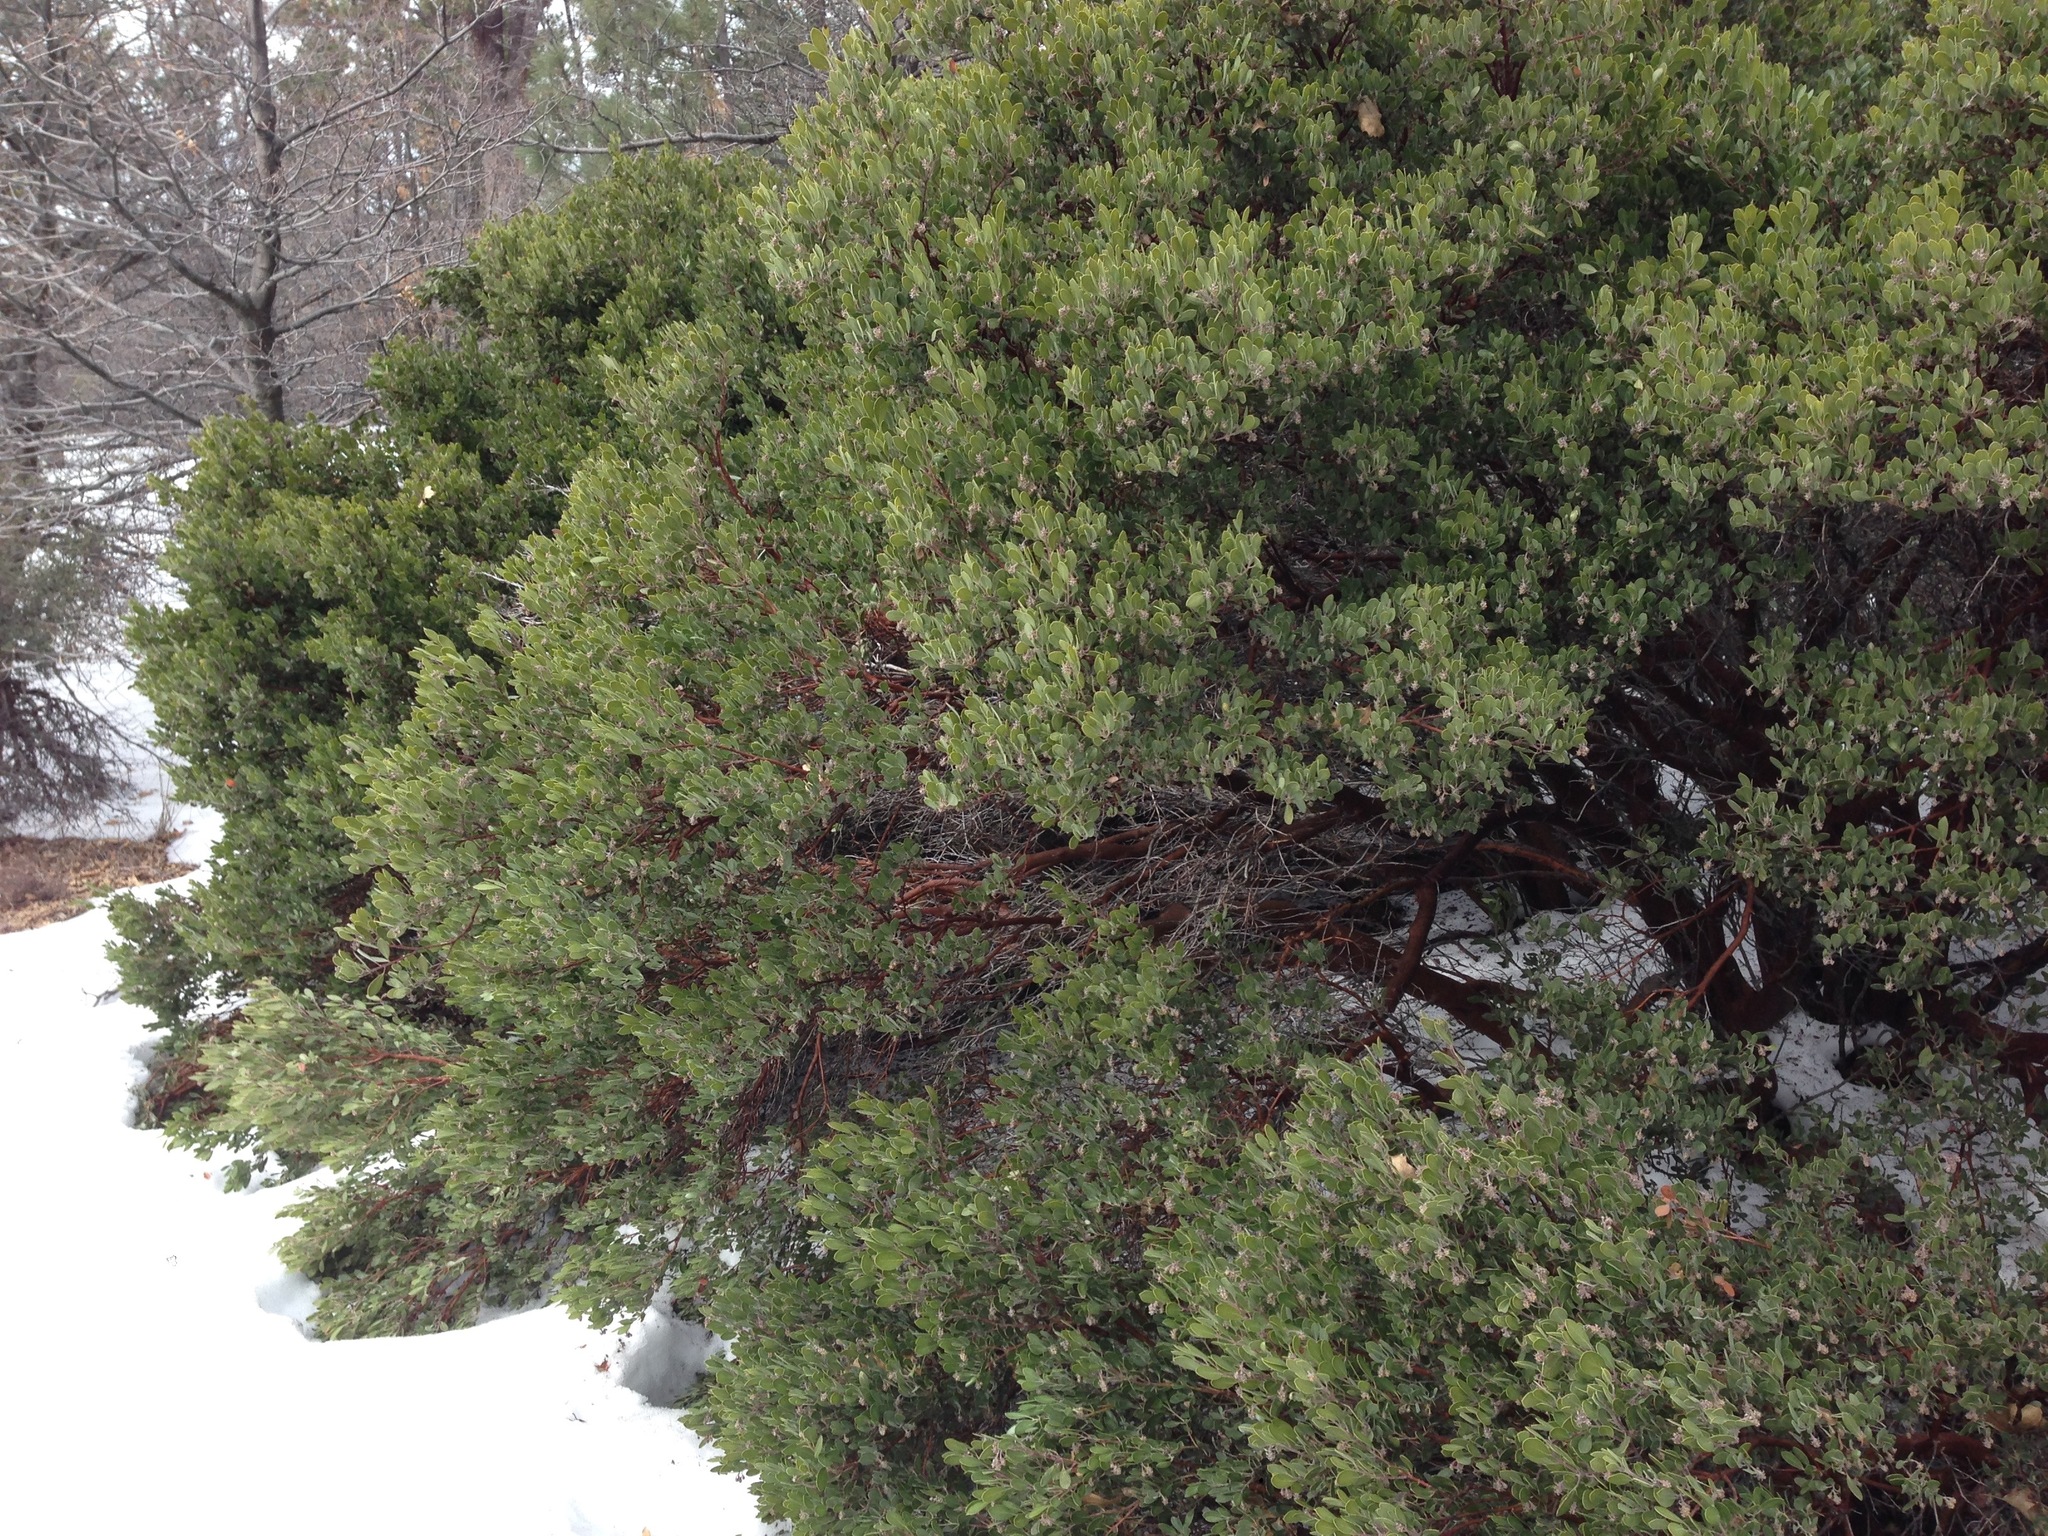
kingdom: Plantae
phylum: Tracheophyta
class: Magnoliopsida
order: Ericales
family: Ericaceae
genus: Arctostaphylos
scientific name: Arctostaphylos pungens
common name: Mexican manzanita
